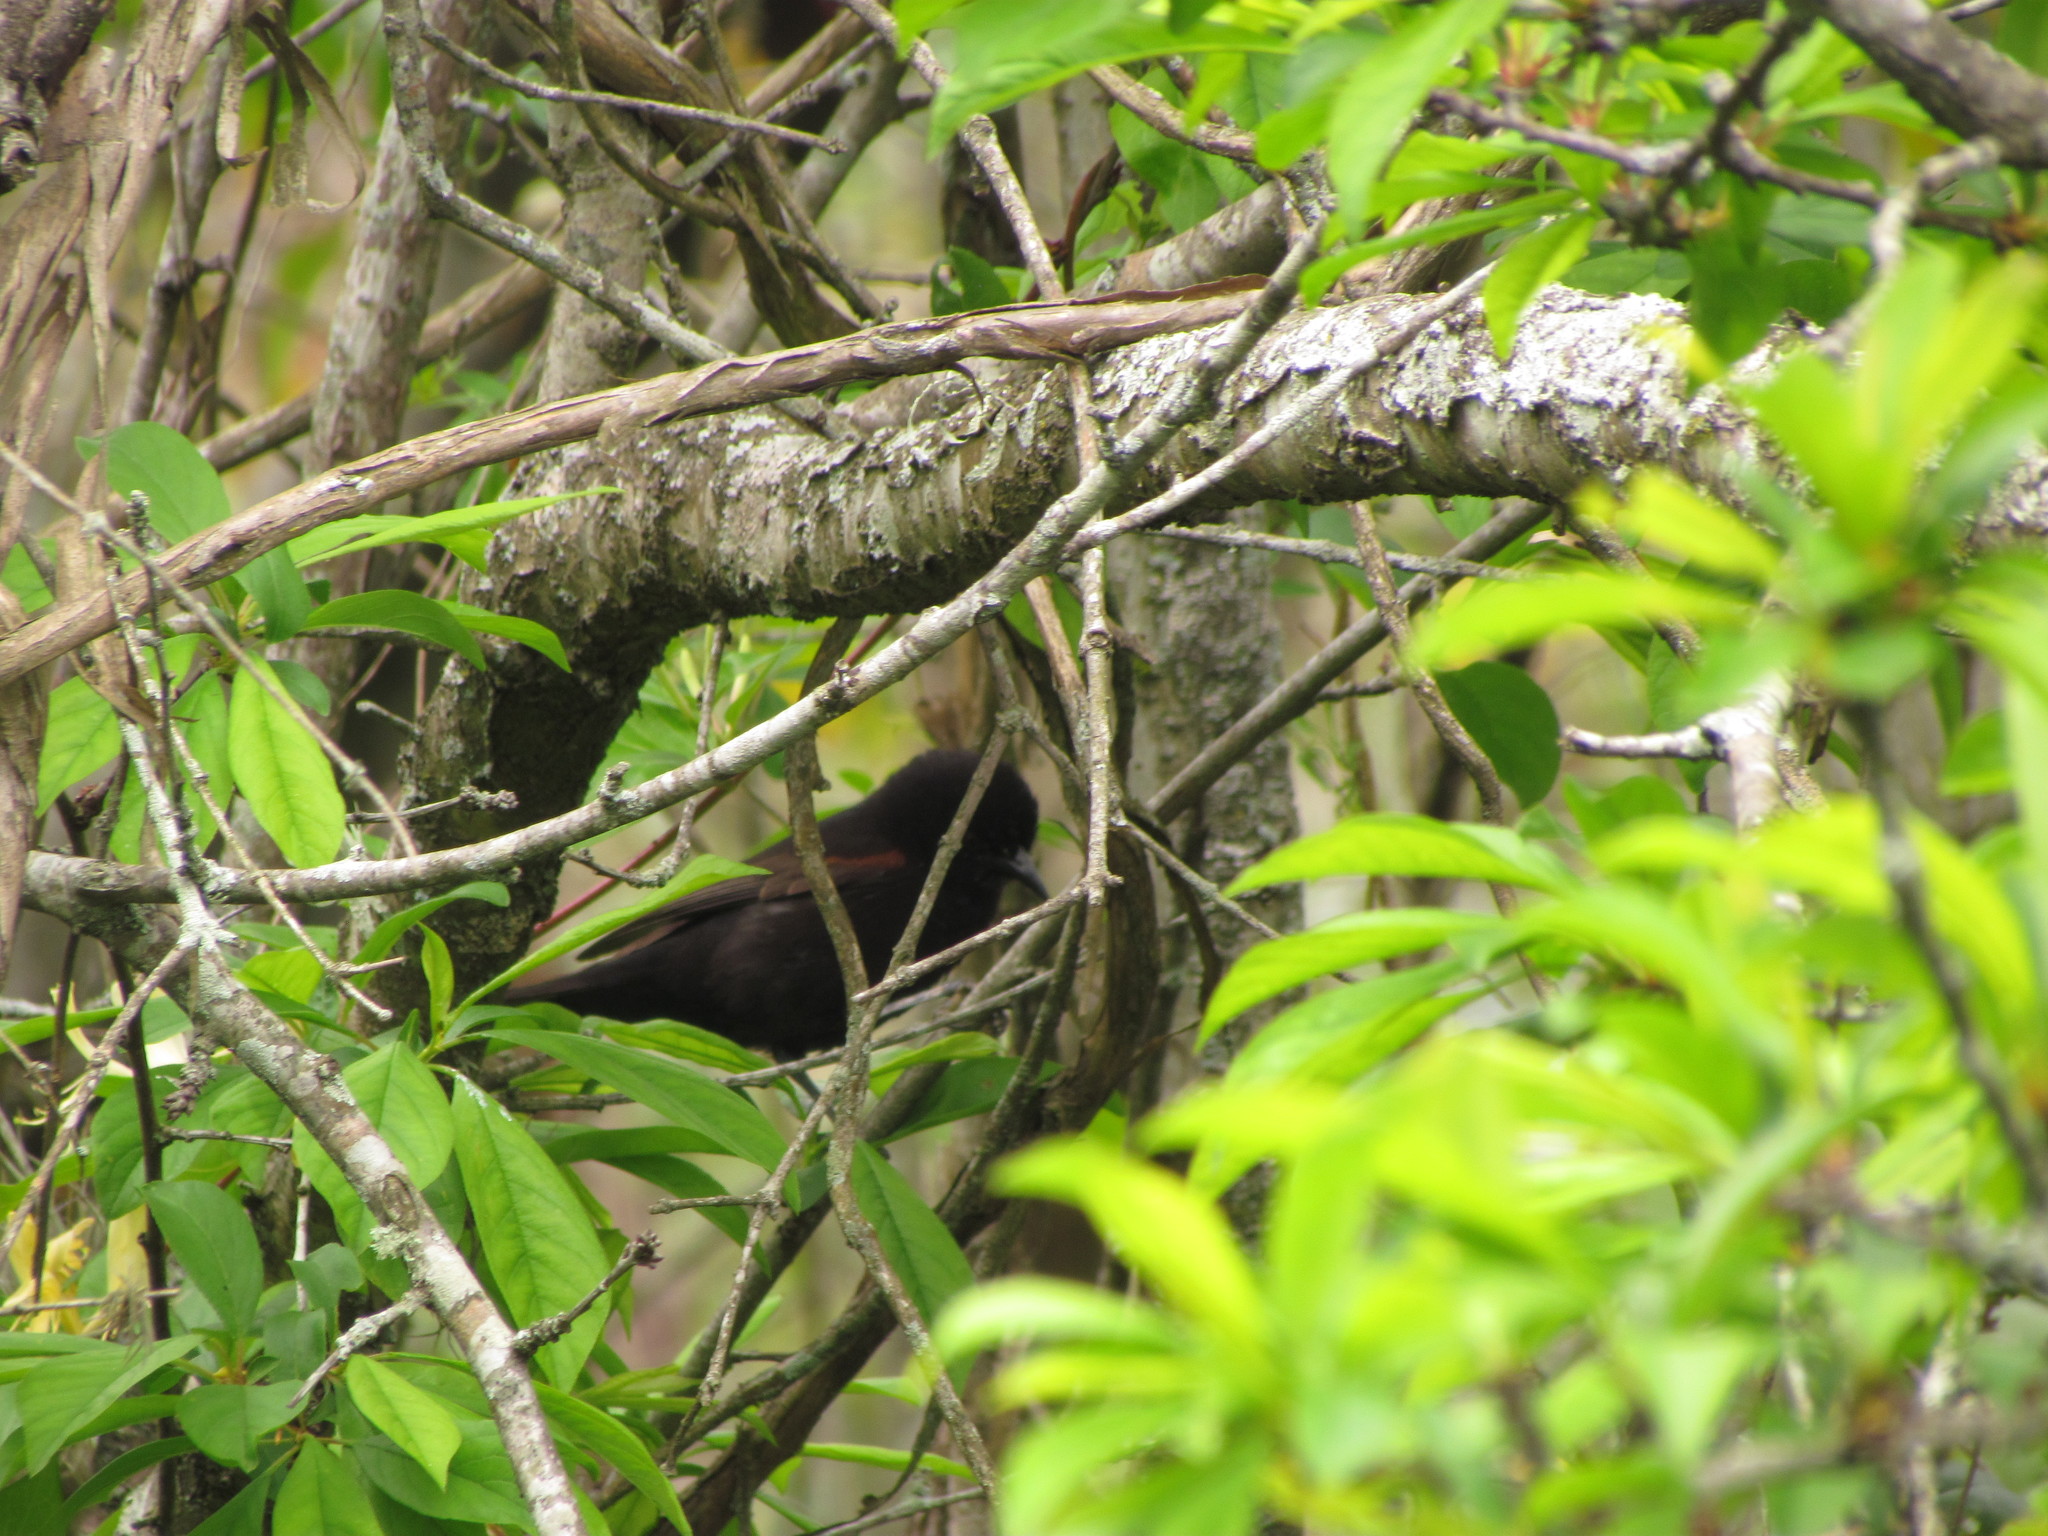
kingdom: Animalia
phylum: Chordata
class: Aves
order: Passeriformes
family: Icteridae
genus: Icterus
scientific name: Icterus cayanensis
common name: Epaulet oriole
